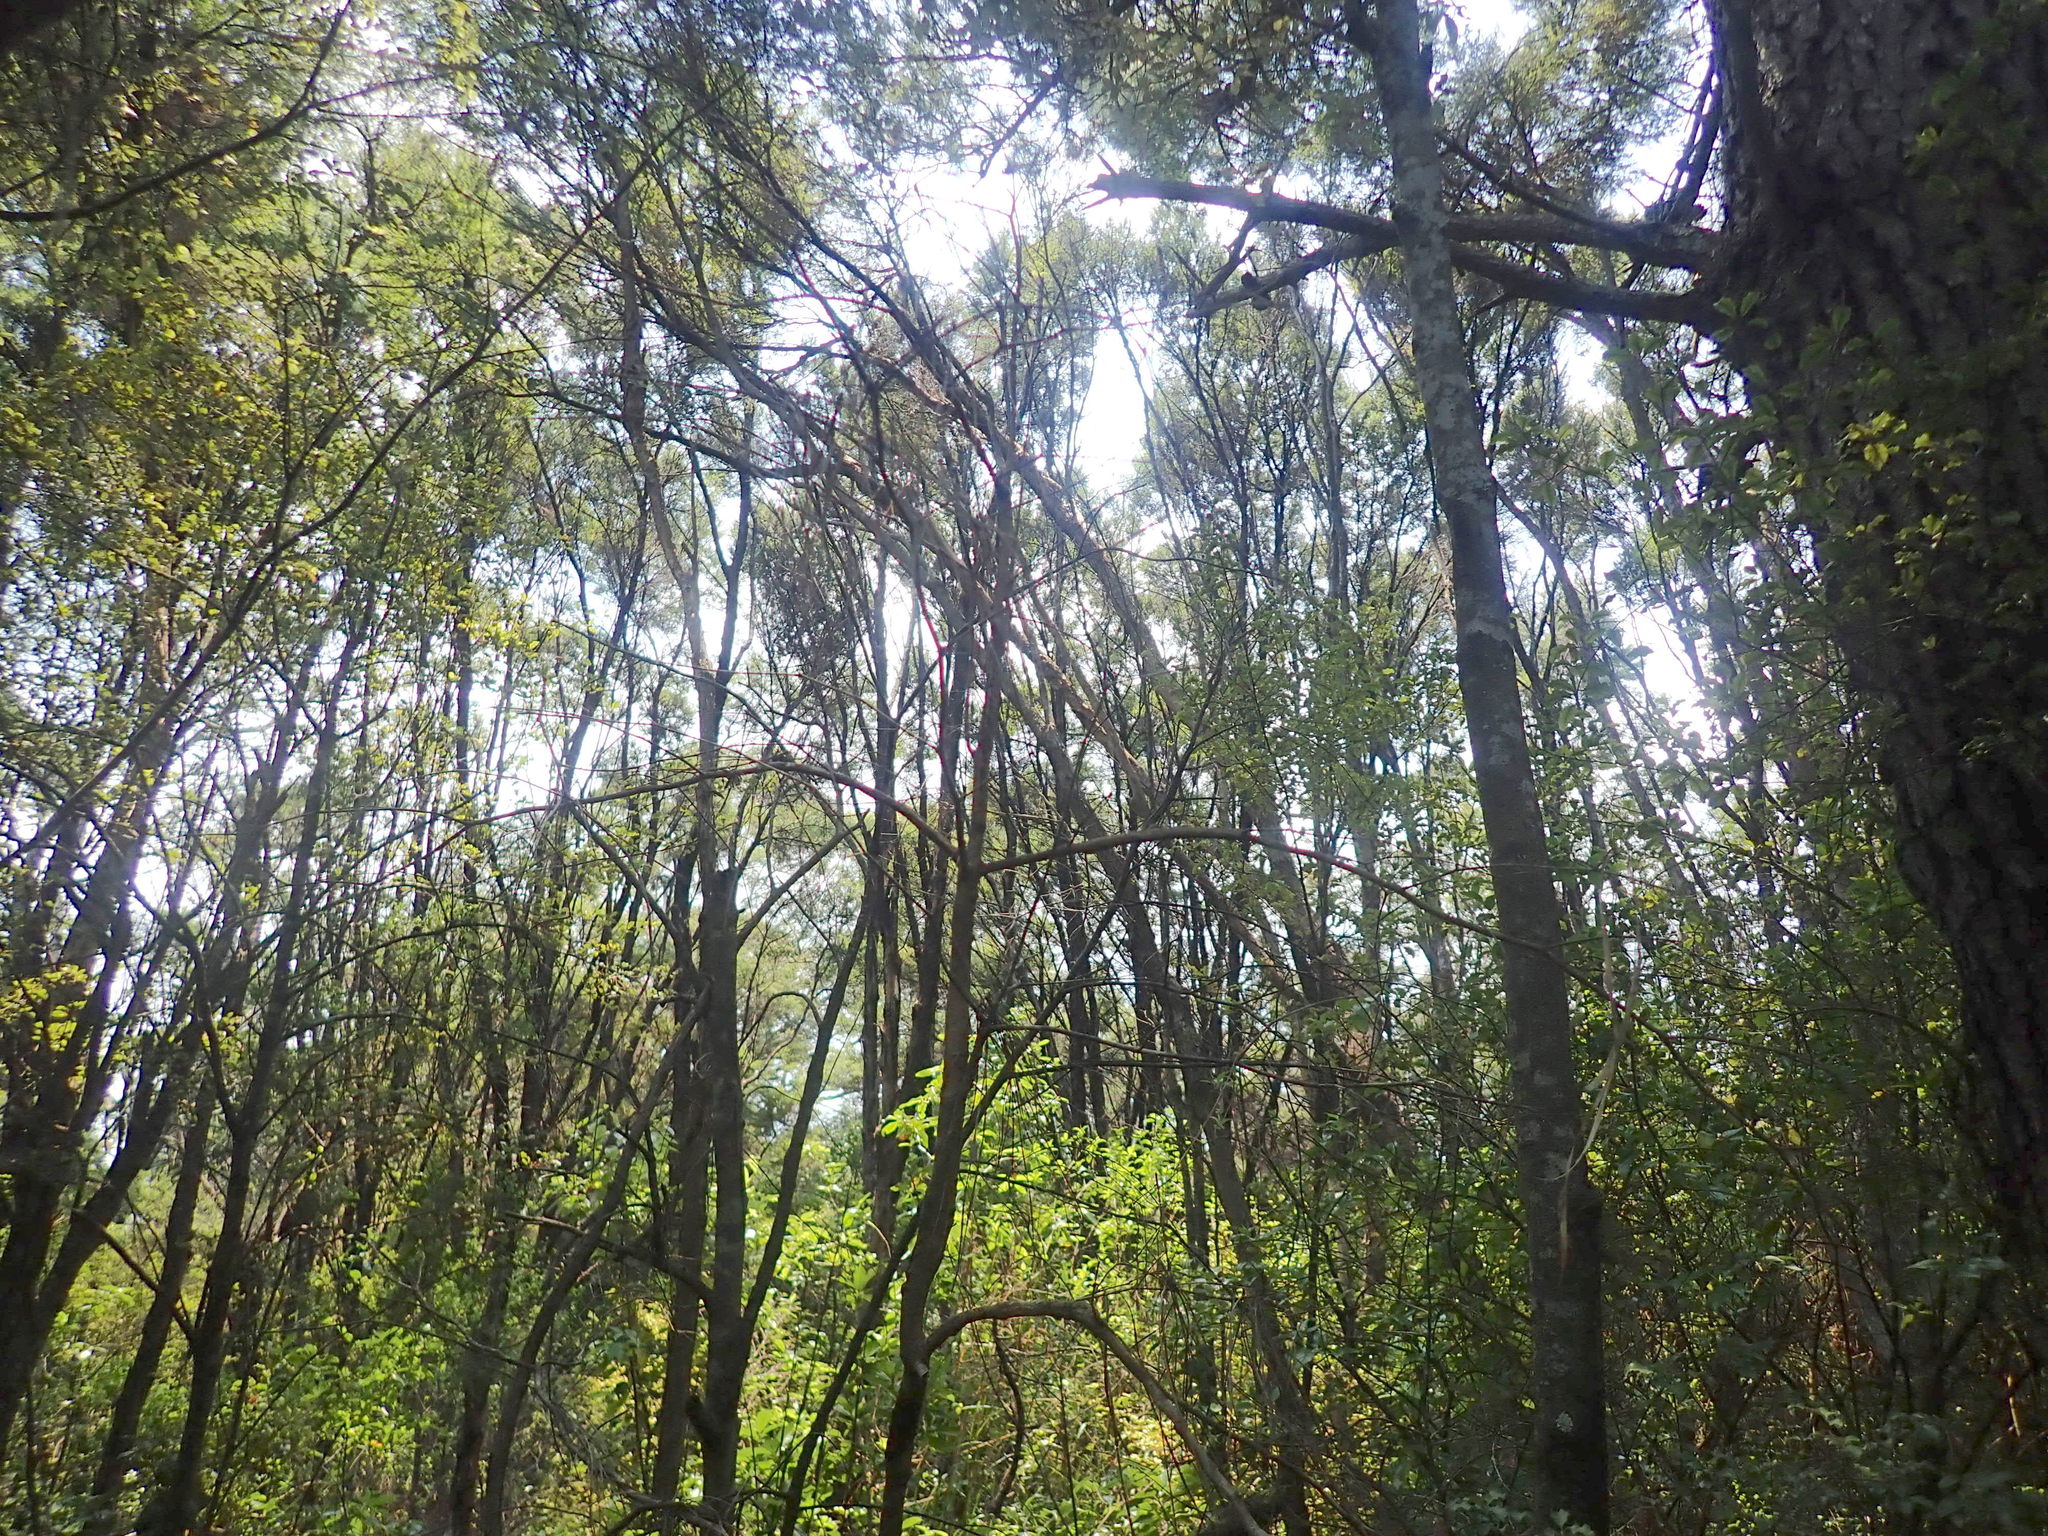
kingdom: Plantae
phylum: Tracheophyta
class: Magnoliopsida
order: Ericales
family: Primulaceae
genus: Myrsine
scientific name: Myrsine australis
